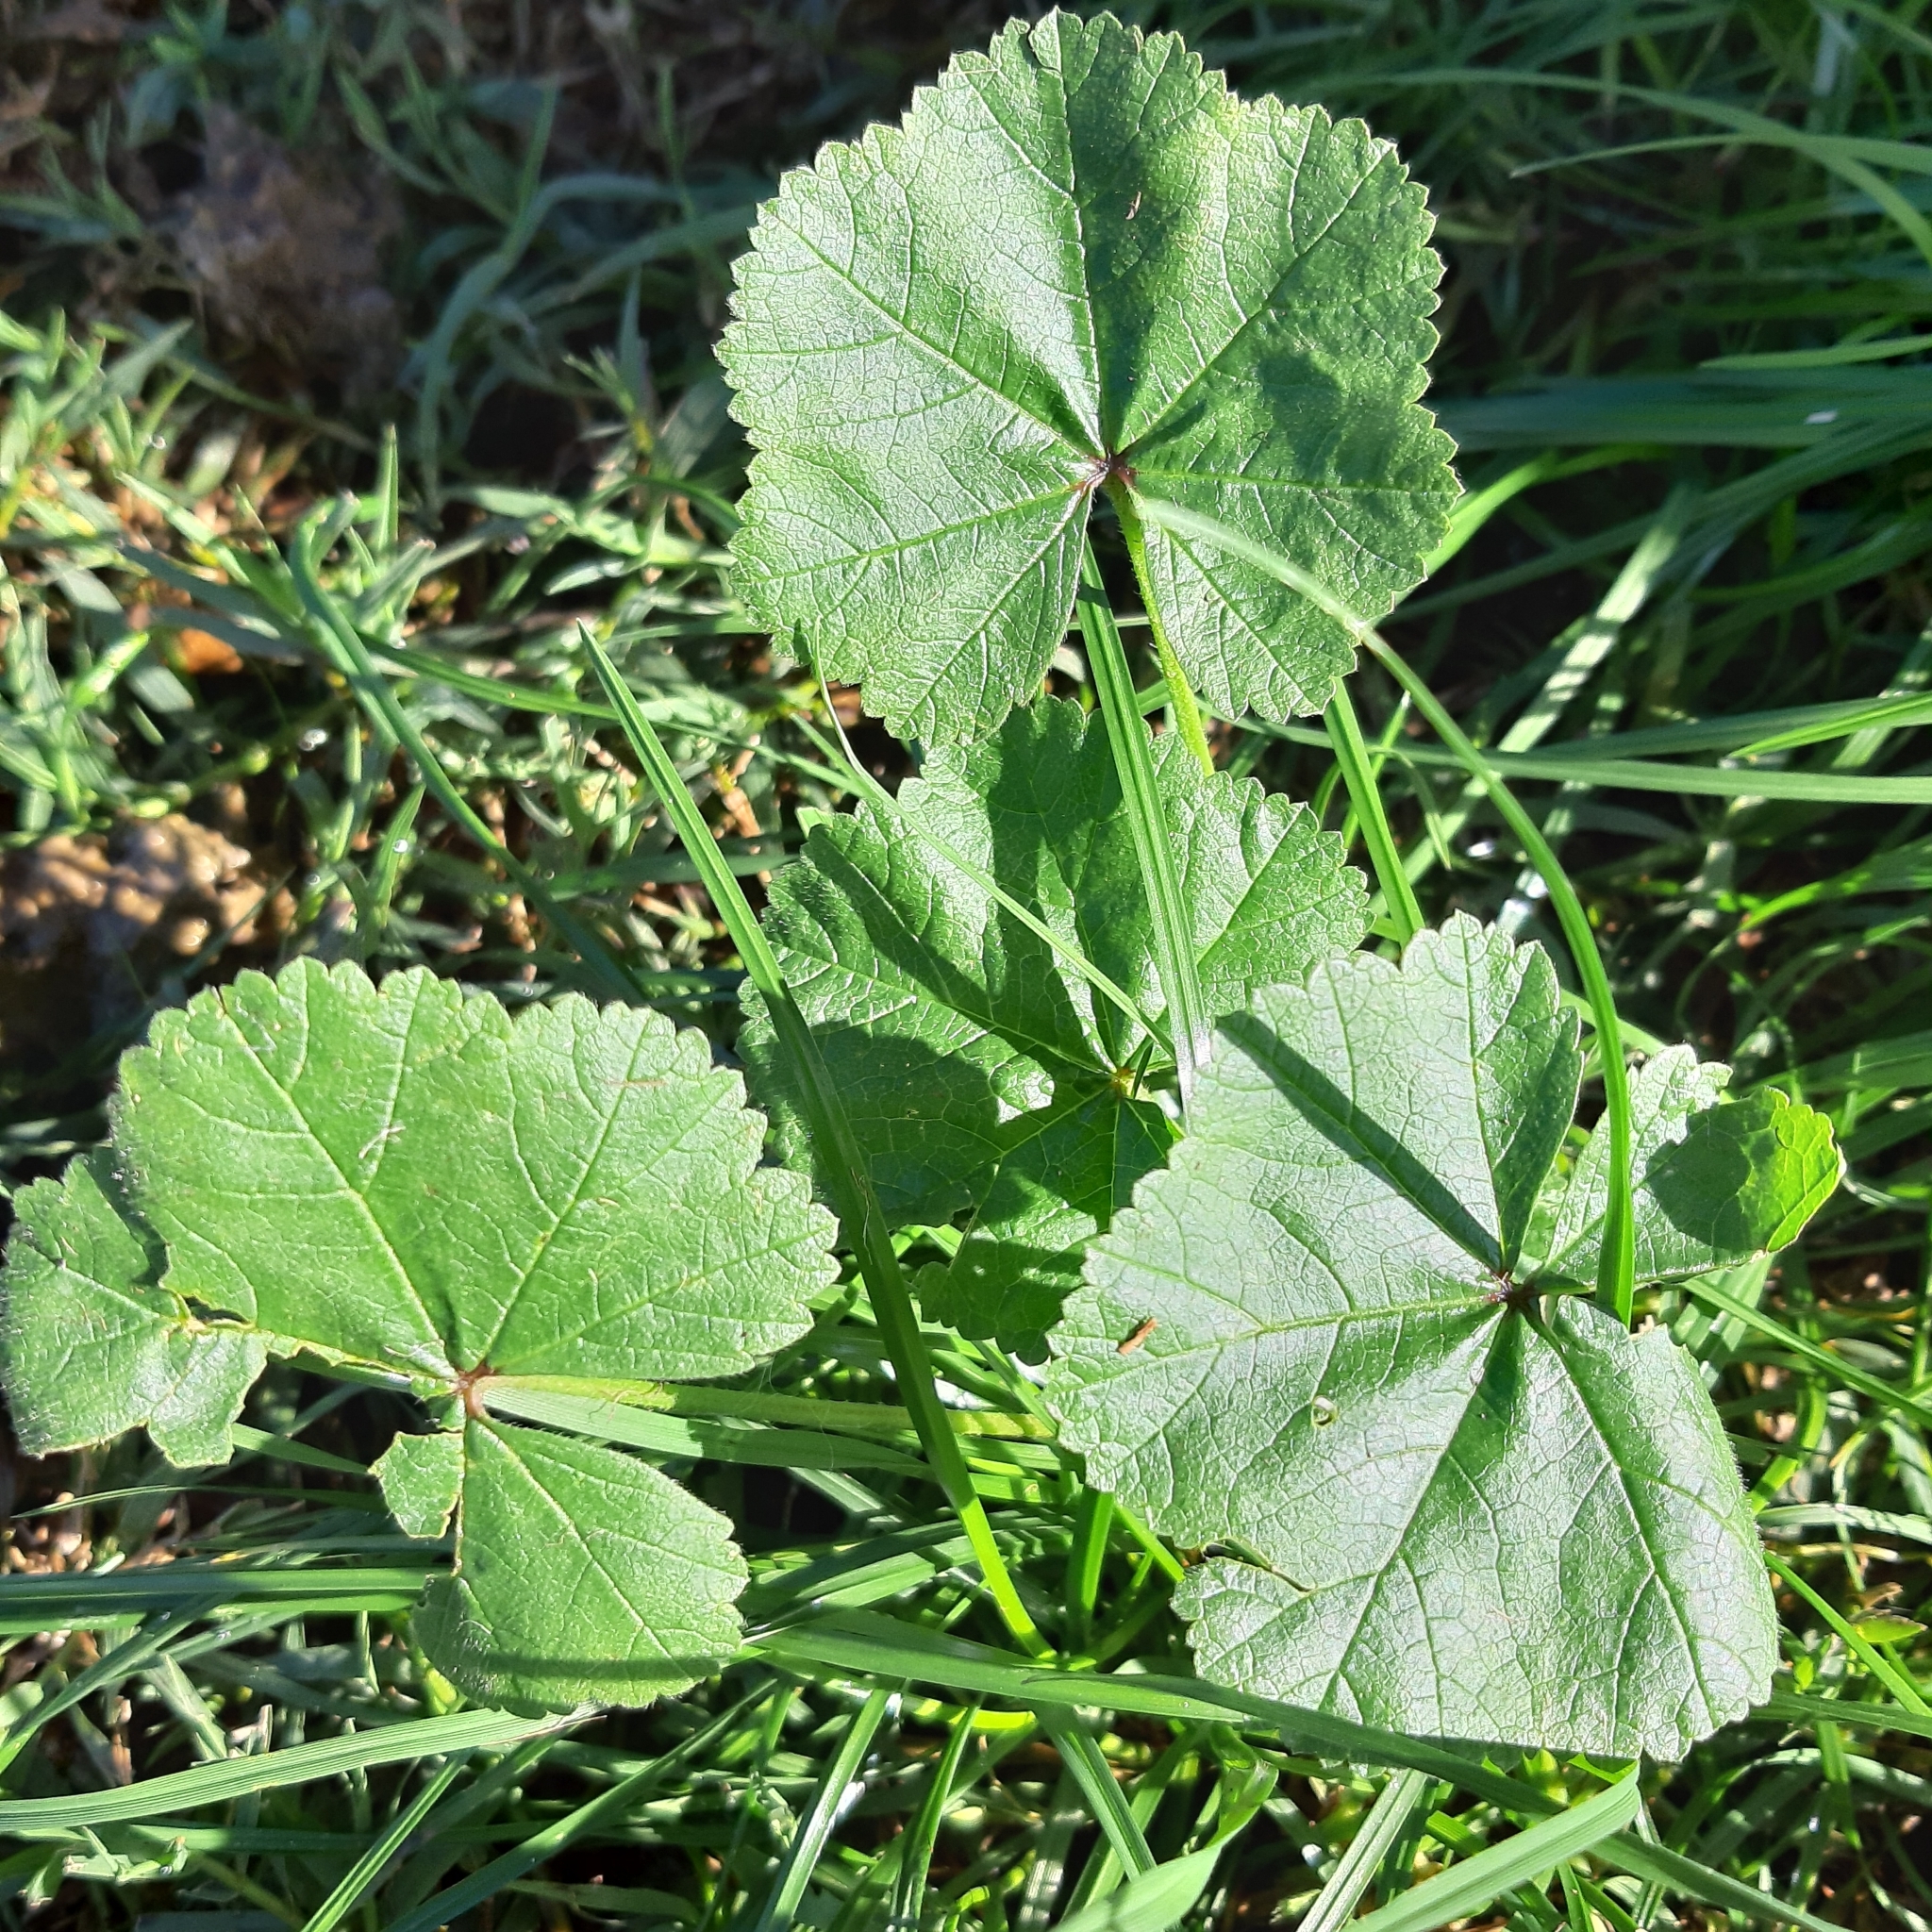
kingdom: Plantae
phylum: Tracheophyta
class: Magnoliopsida
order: Malvales
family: Malvaceae
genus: Malva
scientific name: Malva sylvestris
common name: Common mallow
